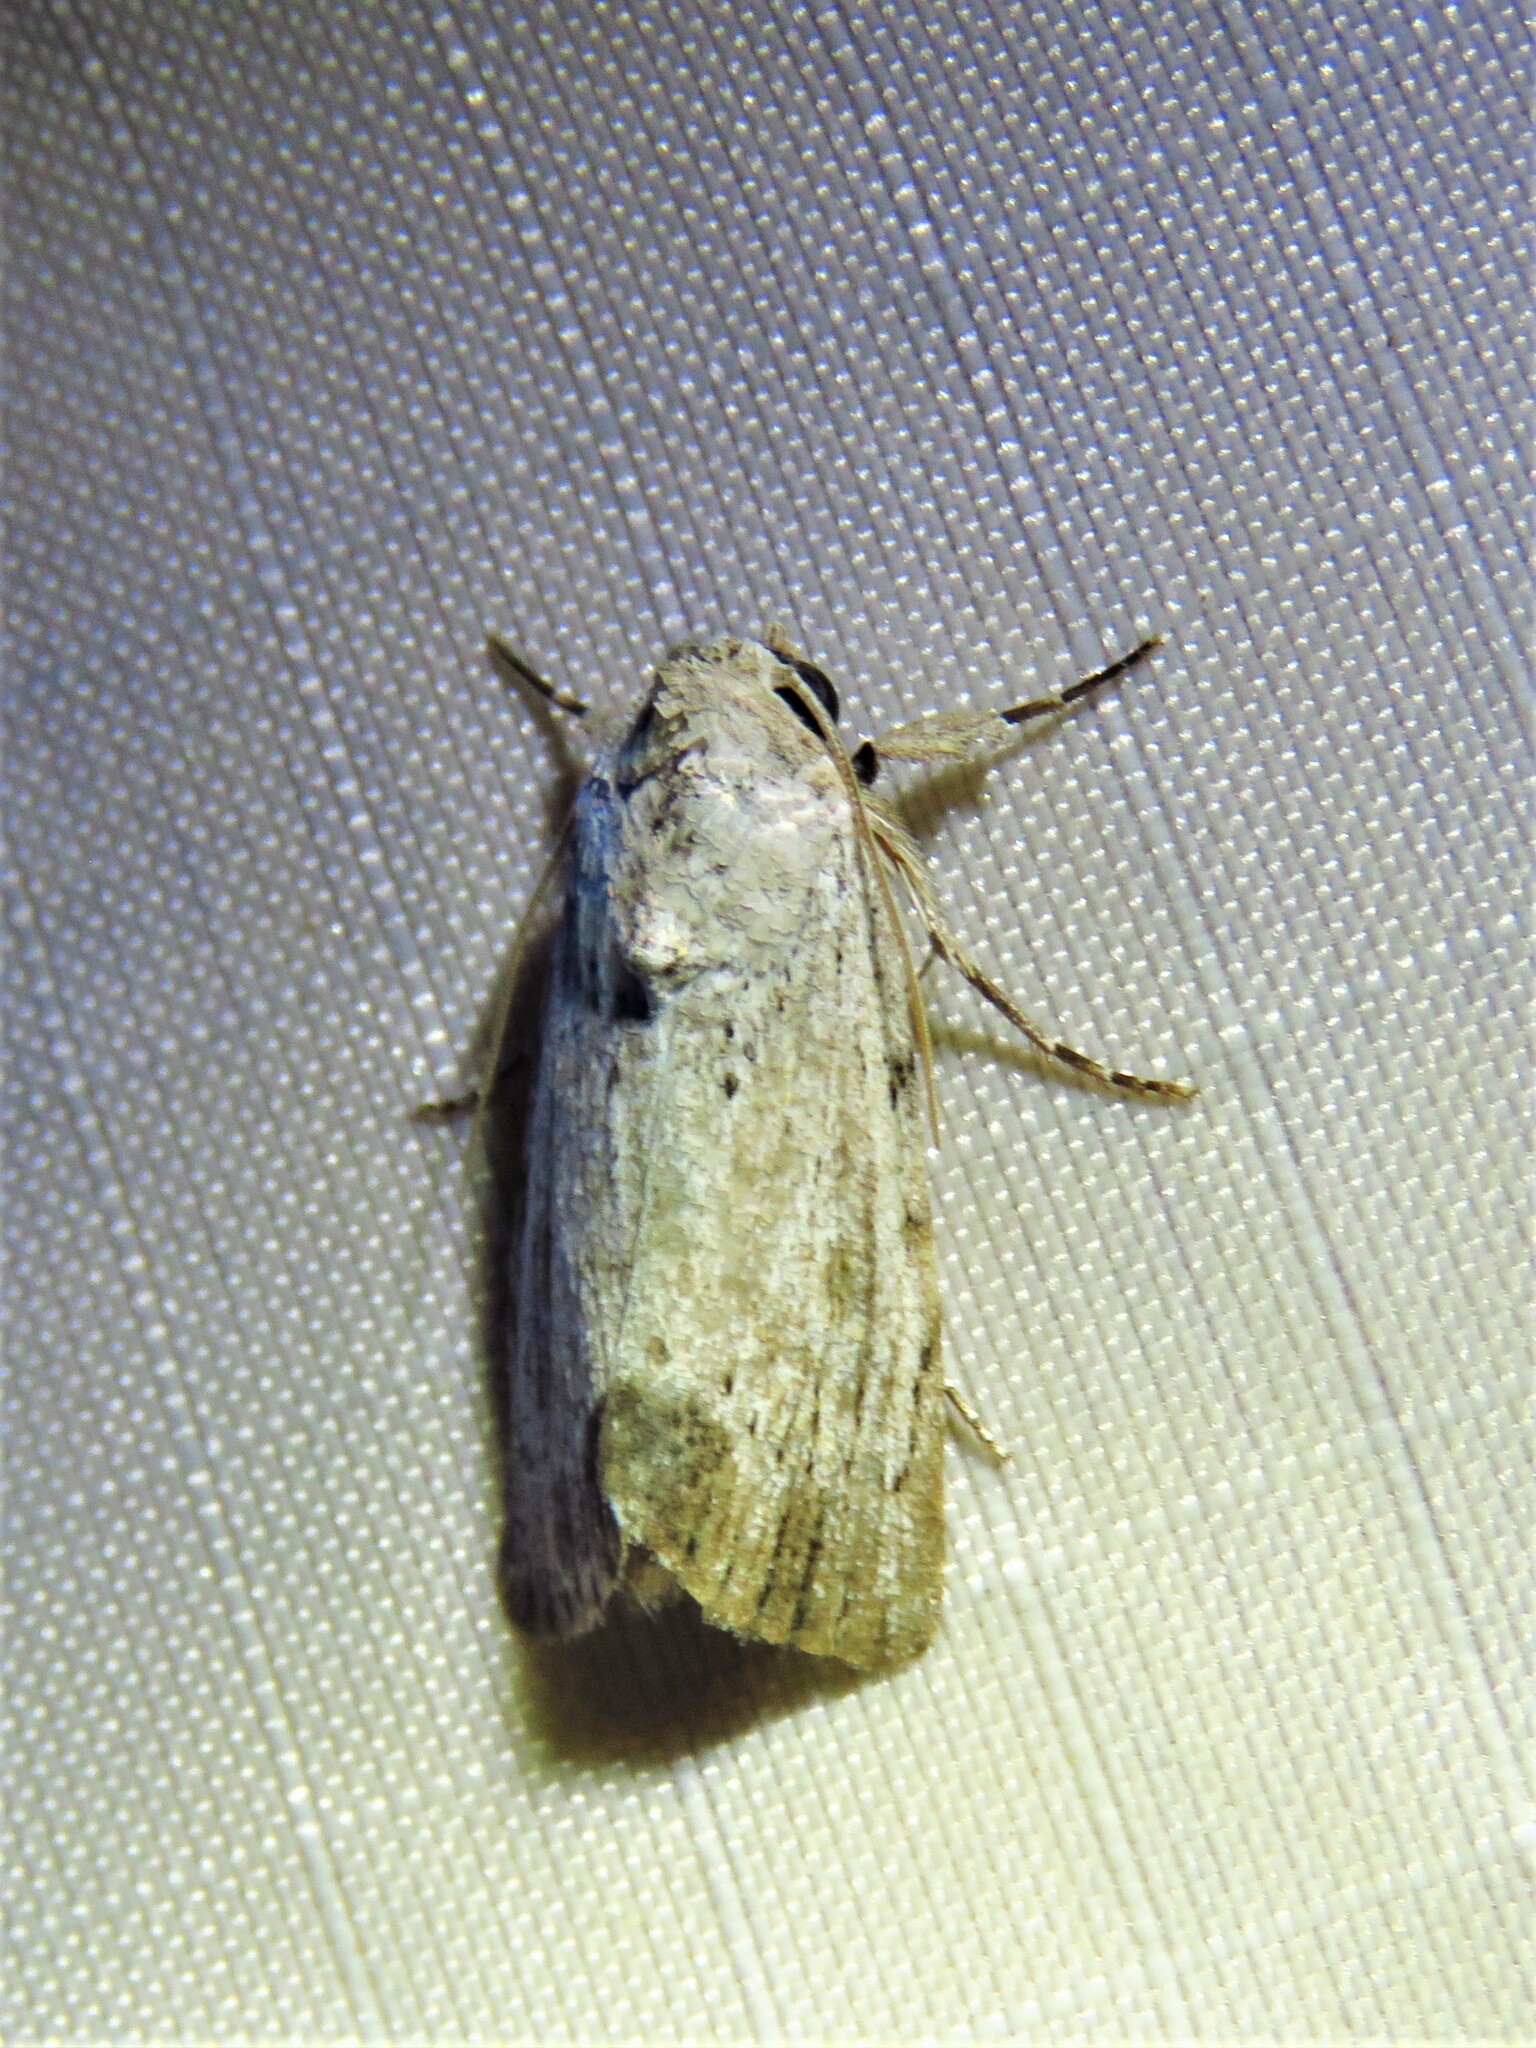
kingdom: Animalia
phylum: Arthropoda
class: Insecta
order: Lepidoptera
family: Noctuidae
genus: Catabenoides
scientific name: Catabenoides terminellus
